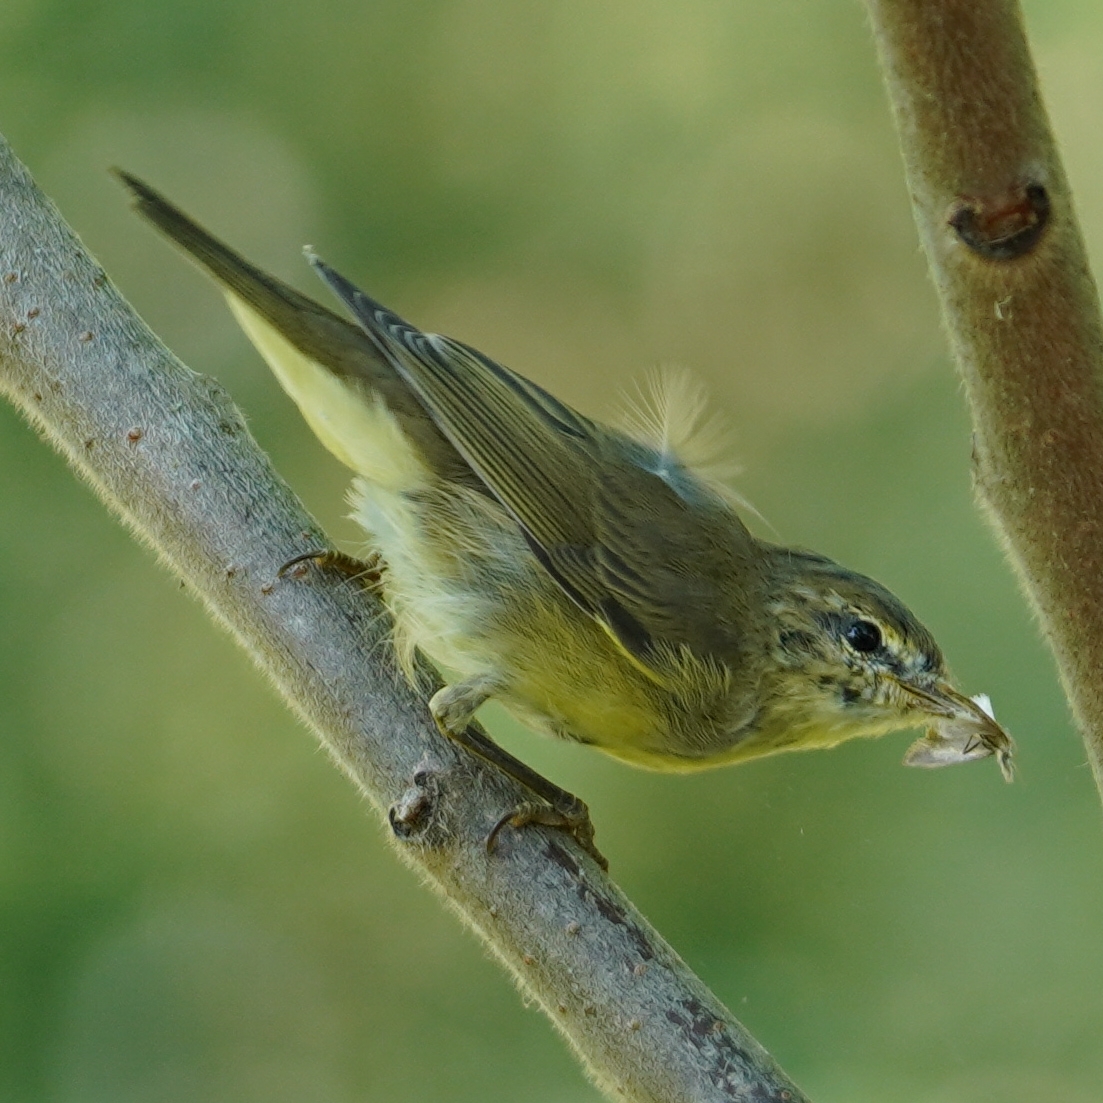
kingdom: Animalia
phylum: Chordata
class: Aves
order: Passeriformes
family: Phylloscopidae
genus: Phylloscopus
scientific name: Phylloscopus trochilus
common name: Willow warbler
